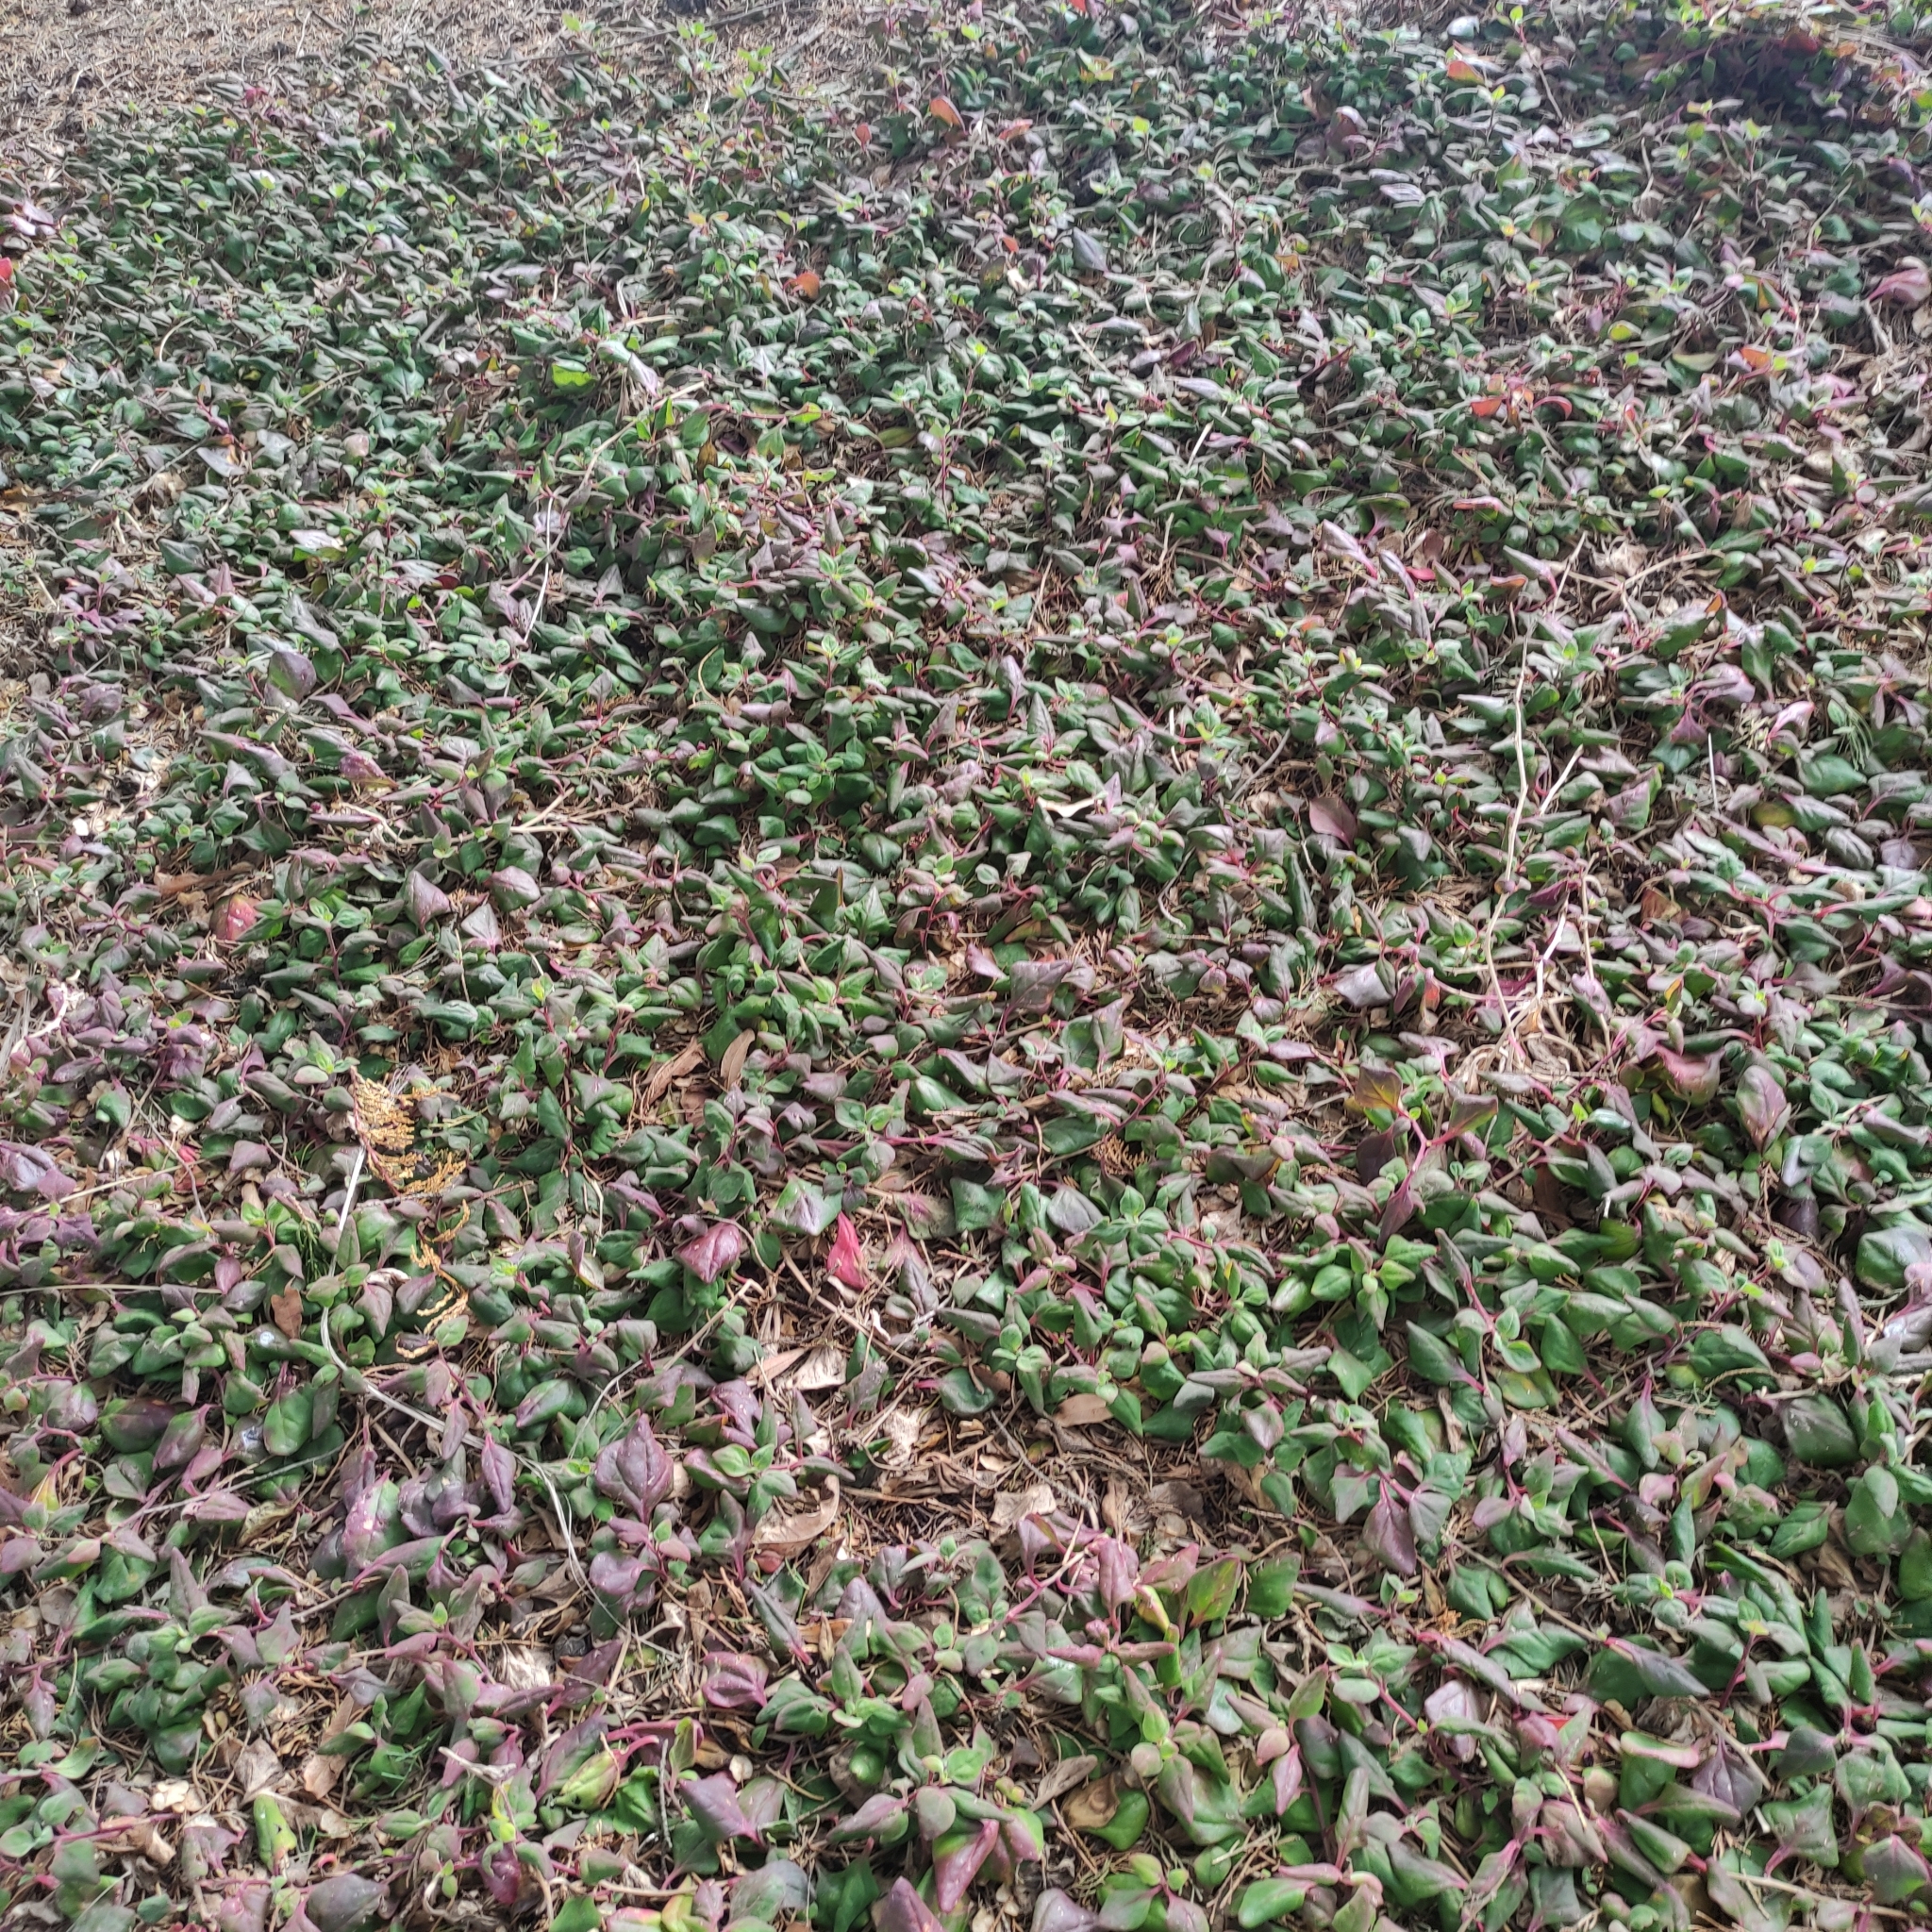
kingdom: Plantae
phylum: Tracheophyta
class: Magnoliopsida
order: Caryophyllales
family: Aizoaceae
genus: Tetragonia
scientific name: Tetragonia implexicoma
